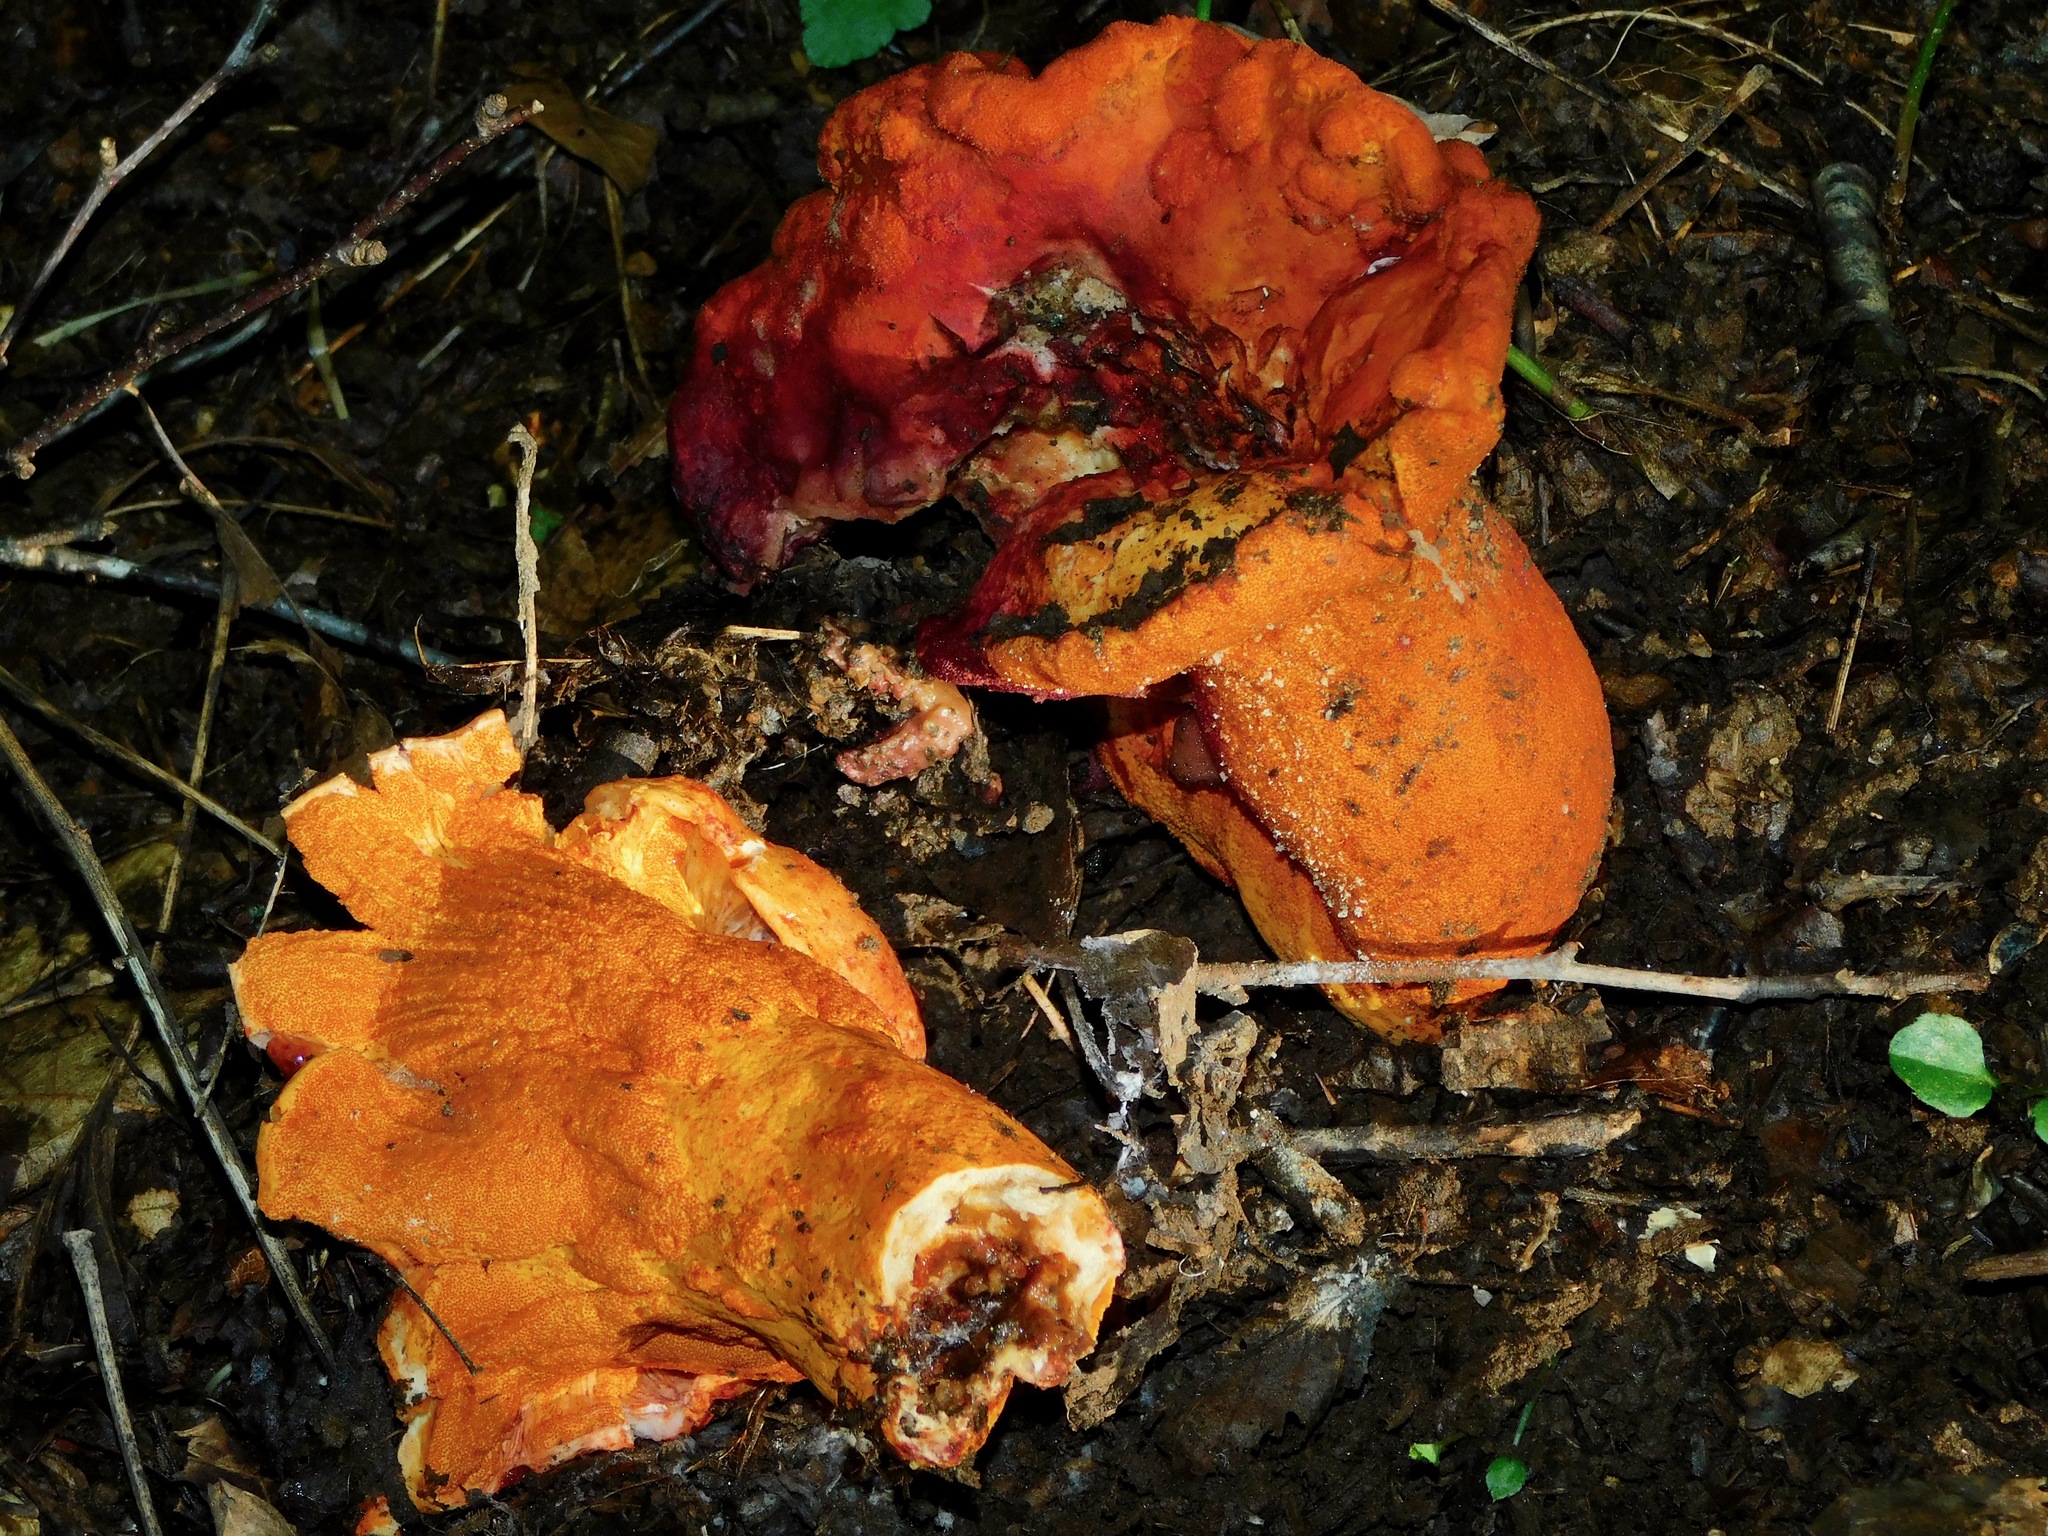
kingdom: Fungi
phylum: Ascomycota
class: Sordariomycetes
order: Hypocreales
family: Hypocreaceae
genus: Hypomyces
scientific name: Hypomyces lactifluorum
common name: Lobster mushroom
